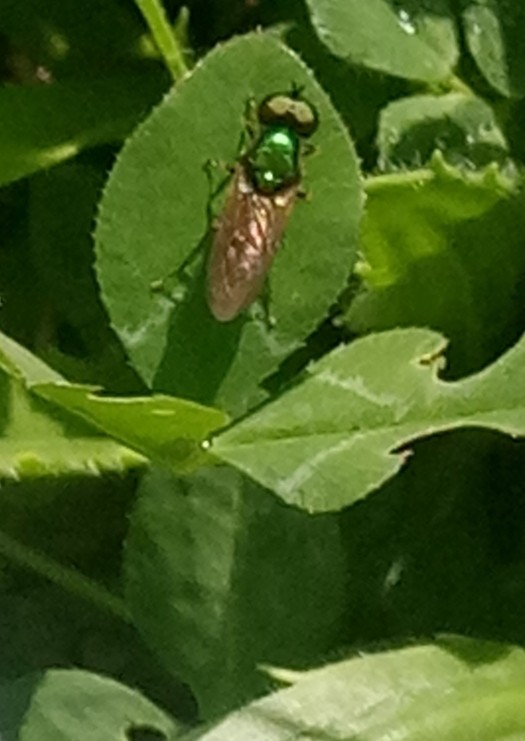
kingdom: Animalia
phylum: Arthropoda
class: Insecta
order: Diptera
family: Stratiomyidae
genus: Chloromyia
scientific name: Chloromyia formosa
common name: Soldier fly
